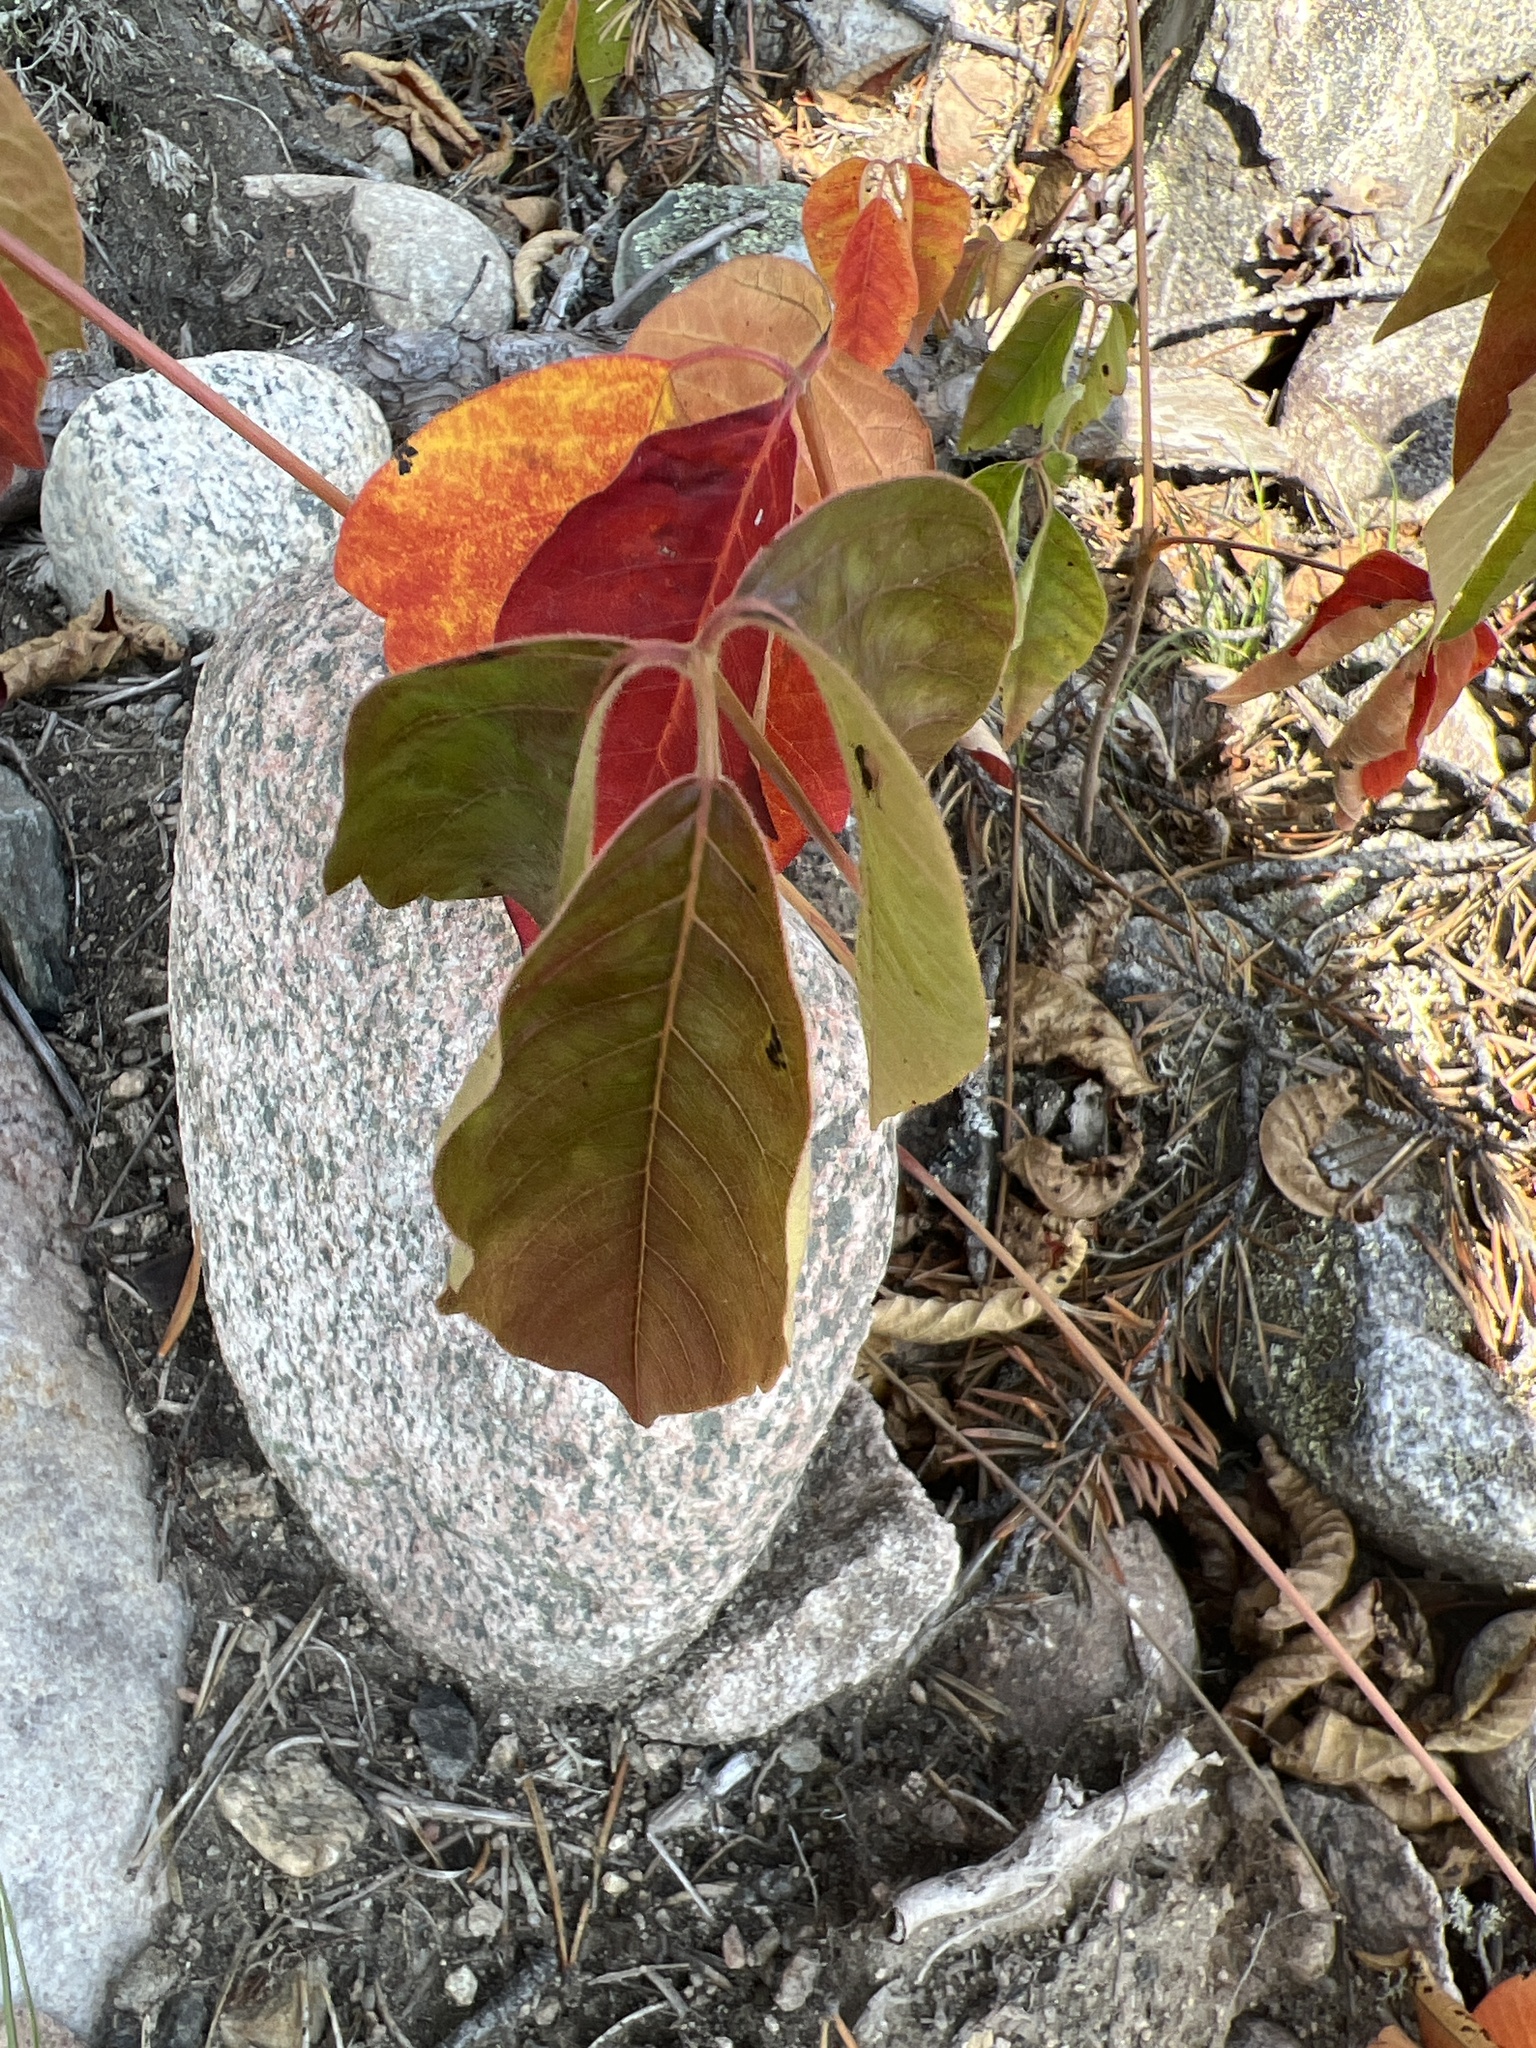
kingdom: Plantae
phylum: Tracheophyta
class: Magnoliopsida
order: Sapindales
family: Anacardiaceae
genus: Toxicodendron
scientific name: Toxicodendron rydbergii
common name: Rydberg's poison-ivy
